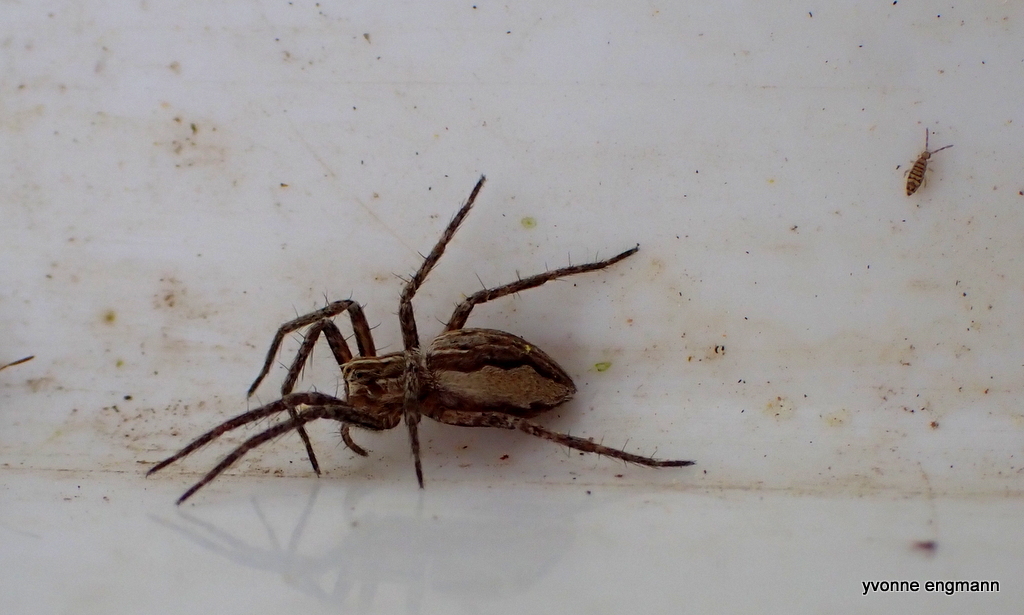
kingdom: Animalia
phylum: Arthropoda
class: Arachnida
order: Araneae
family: Pisauridae
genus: Pisaura
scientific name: Pisaura mirabilis
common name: Tent spider
